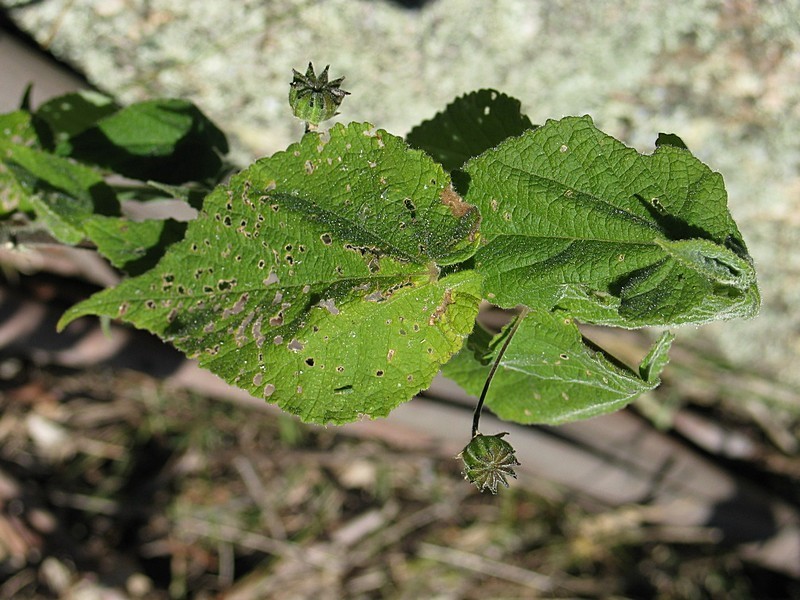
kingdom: Plantae
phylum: Tracheophyta
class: Magnoliopsida
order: Malvales
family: Malvaceae
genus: Abutilon
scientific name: Abutilon oxycarpum
